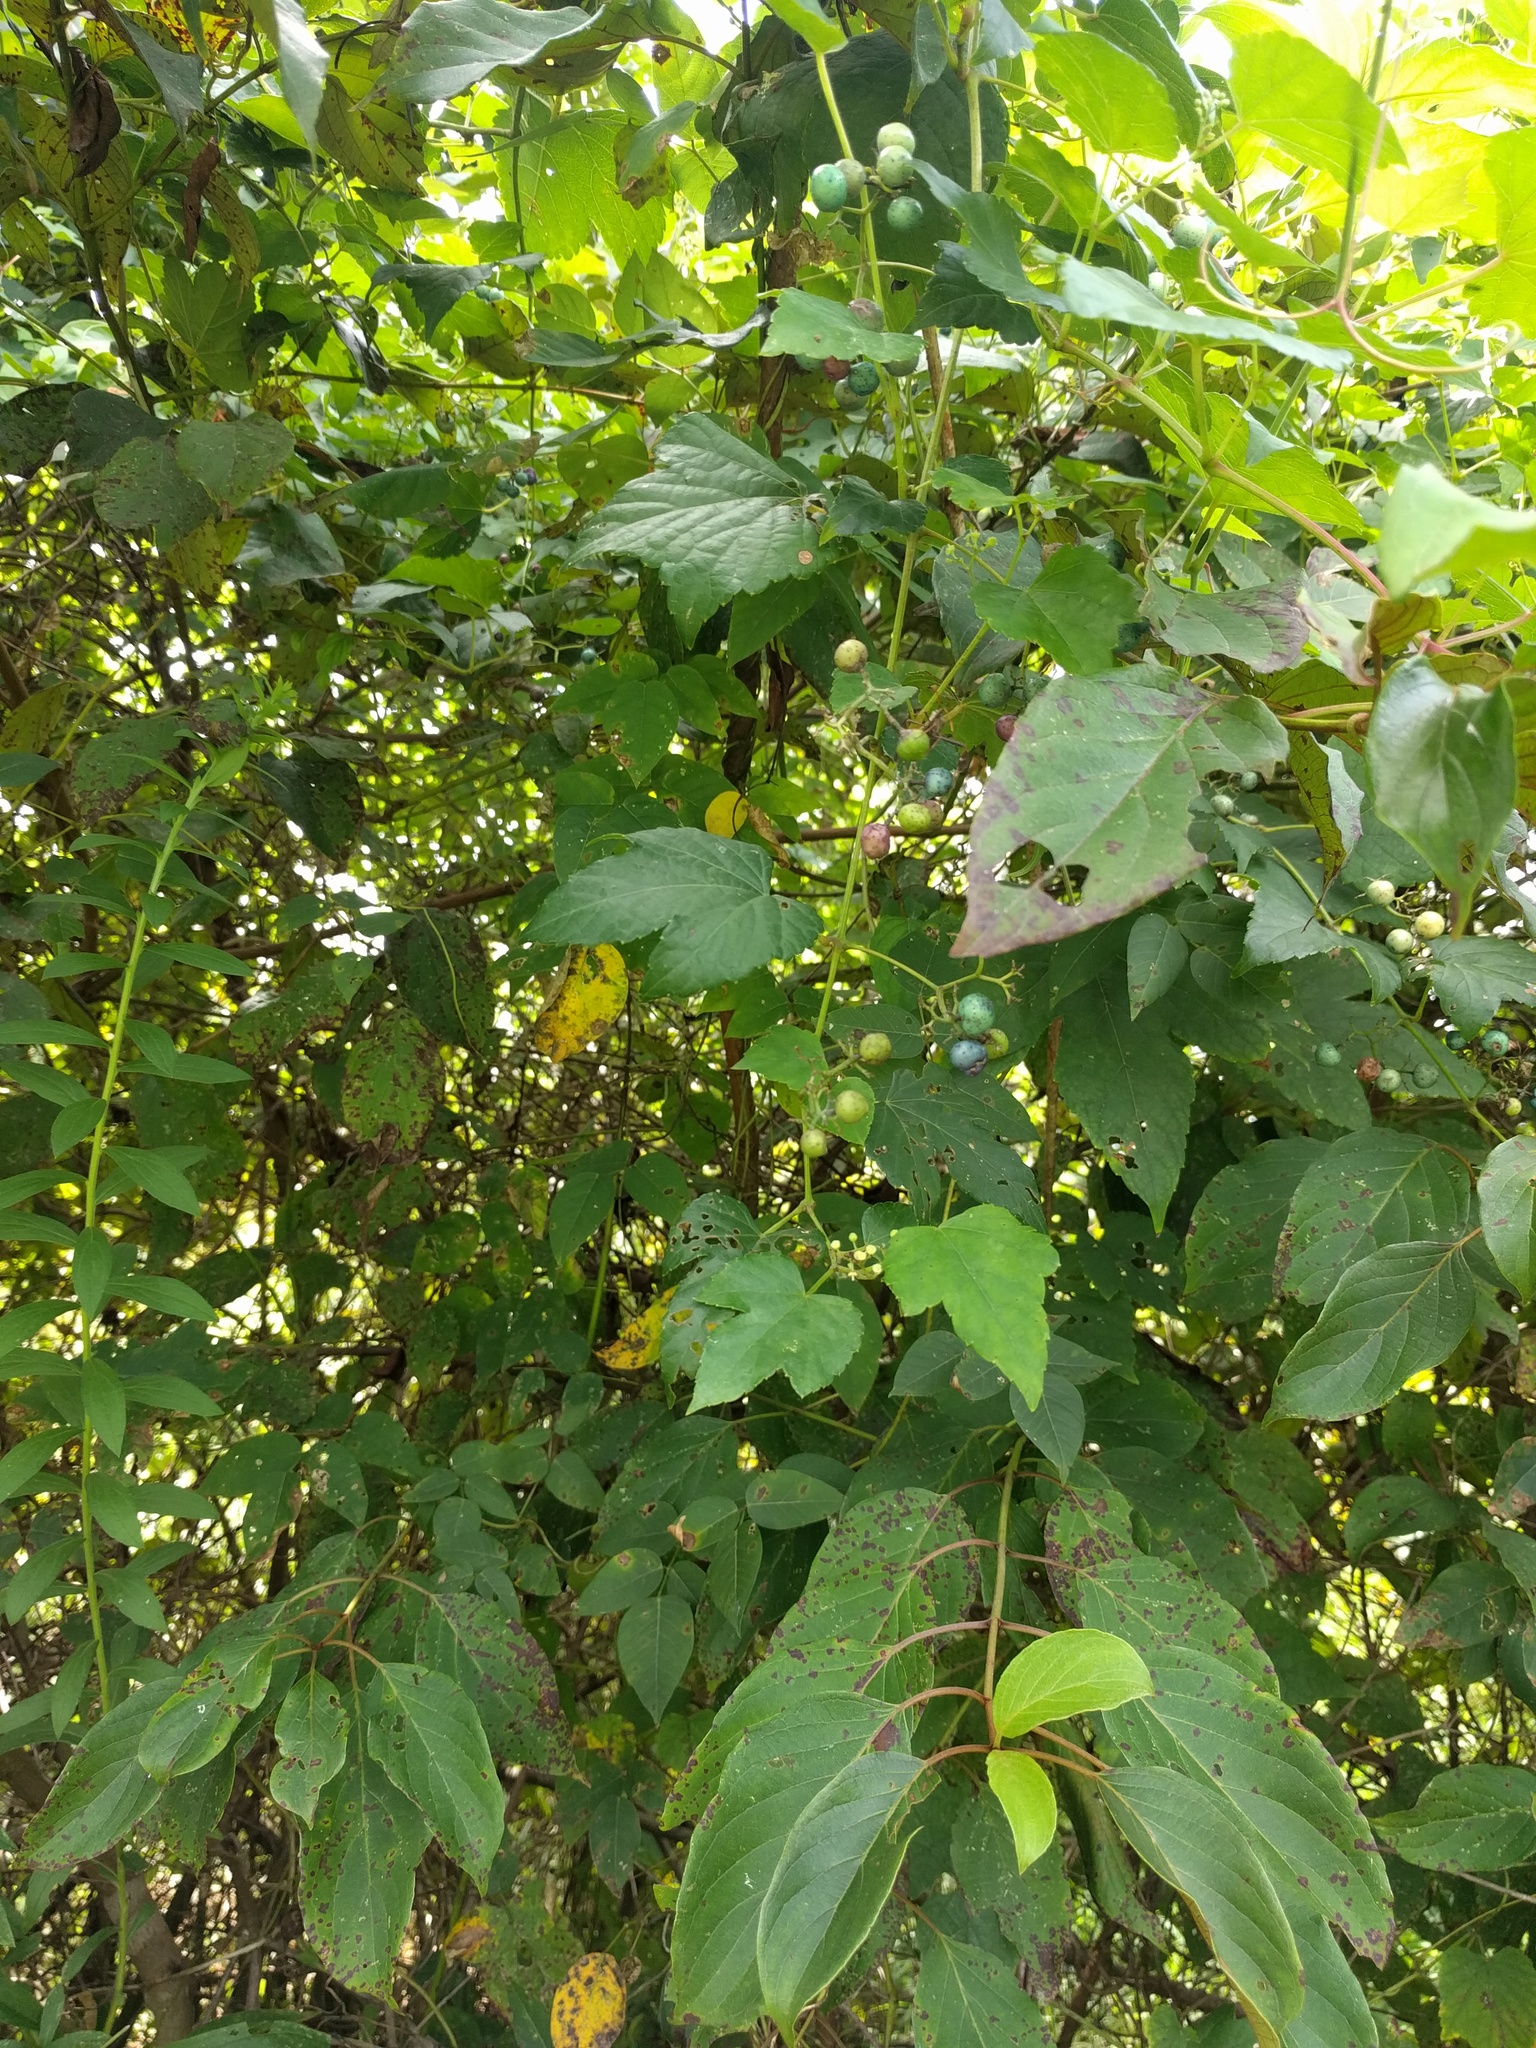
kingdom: Plantae
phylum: Tracheophyta
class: Magnoliopsida
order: Vitales
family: Vitaceae
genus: Ampelopsis
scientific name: Ampelopsis glandulosa
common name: Amur peppervine
